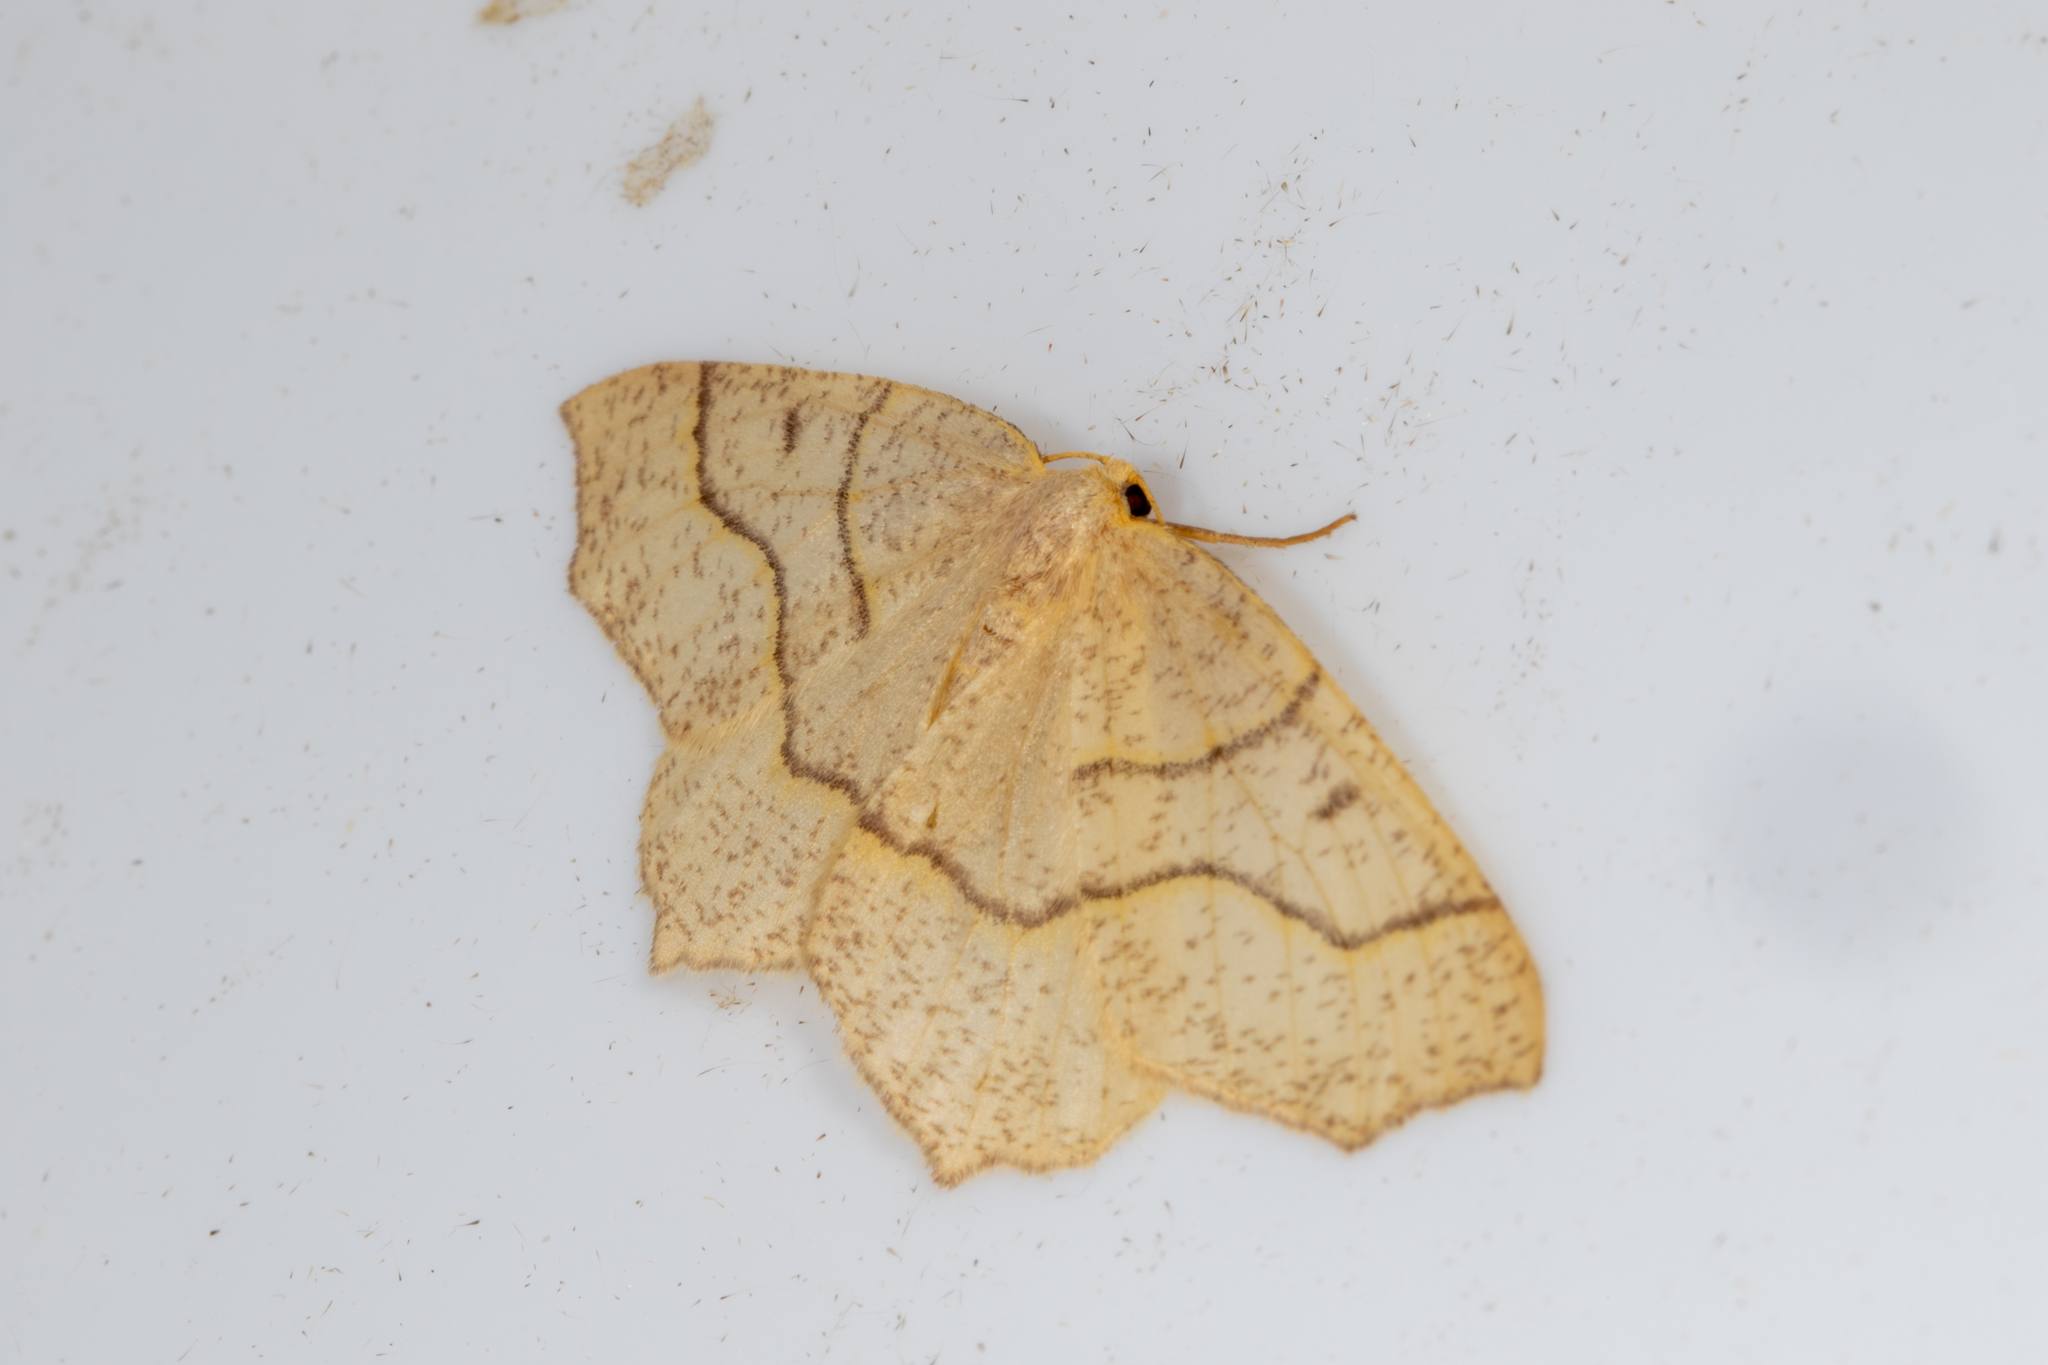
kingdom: Animalia
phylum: Arthropoda
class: Insecta
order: Lepidoptera
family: Geometridae
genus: Lambdina
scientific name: Lambdina fiscellaria
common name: Hemlock looper
